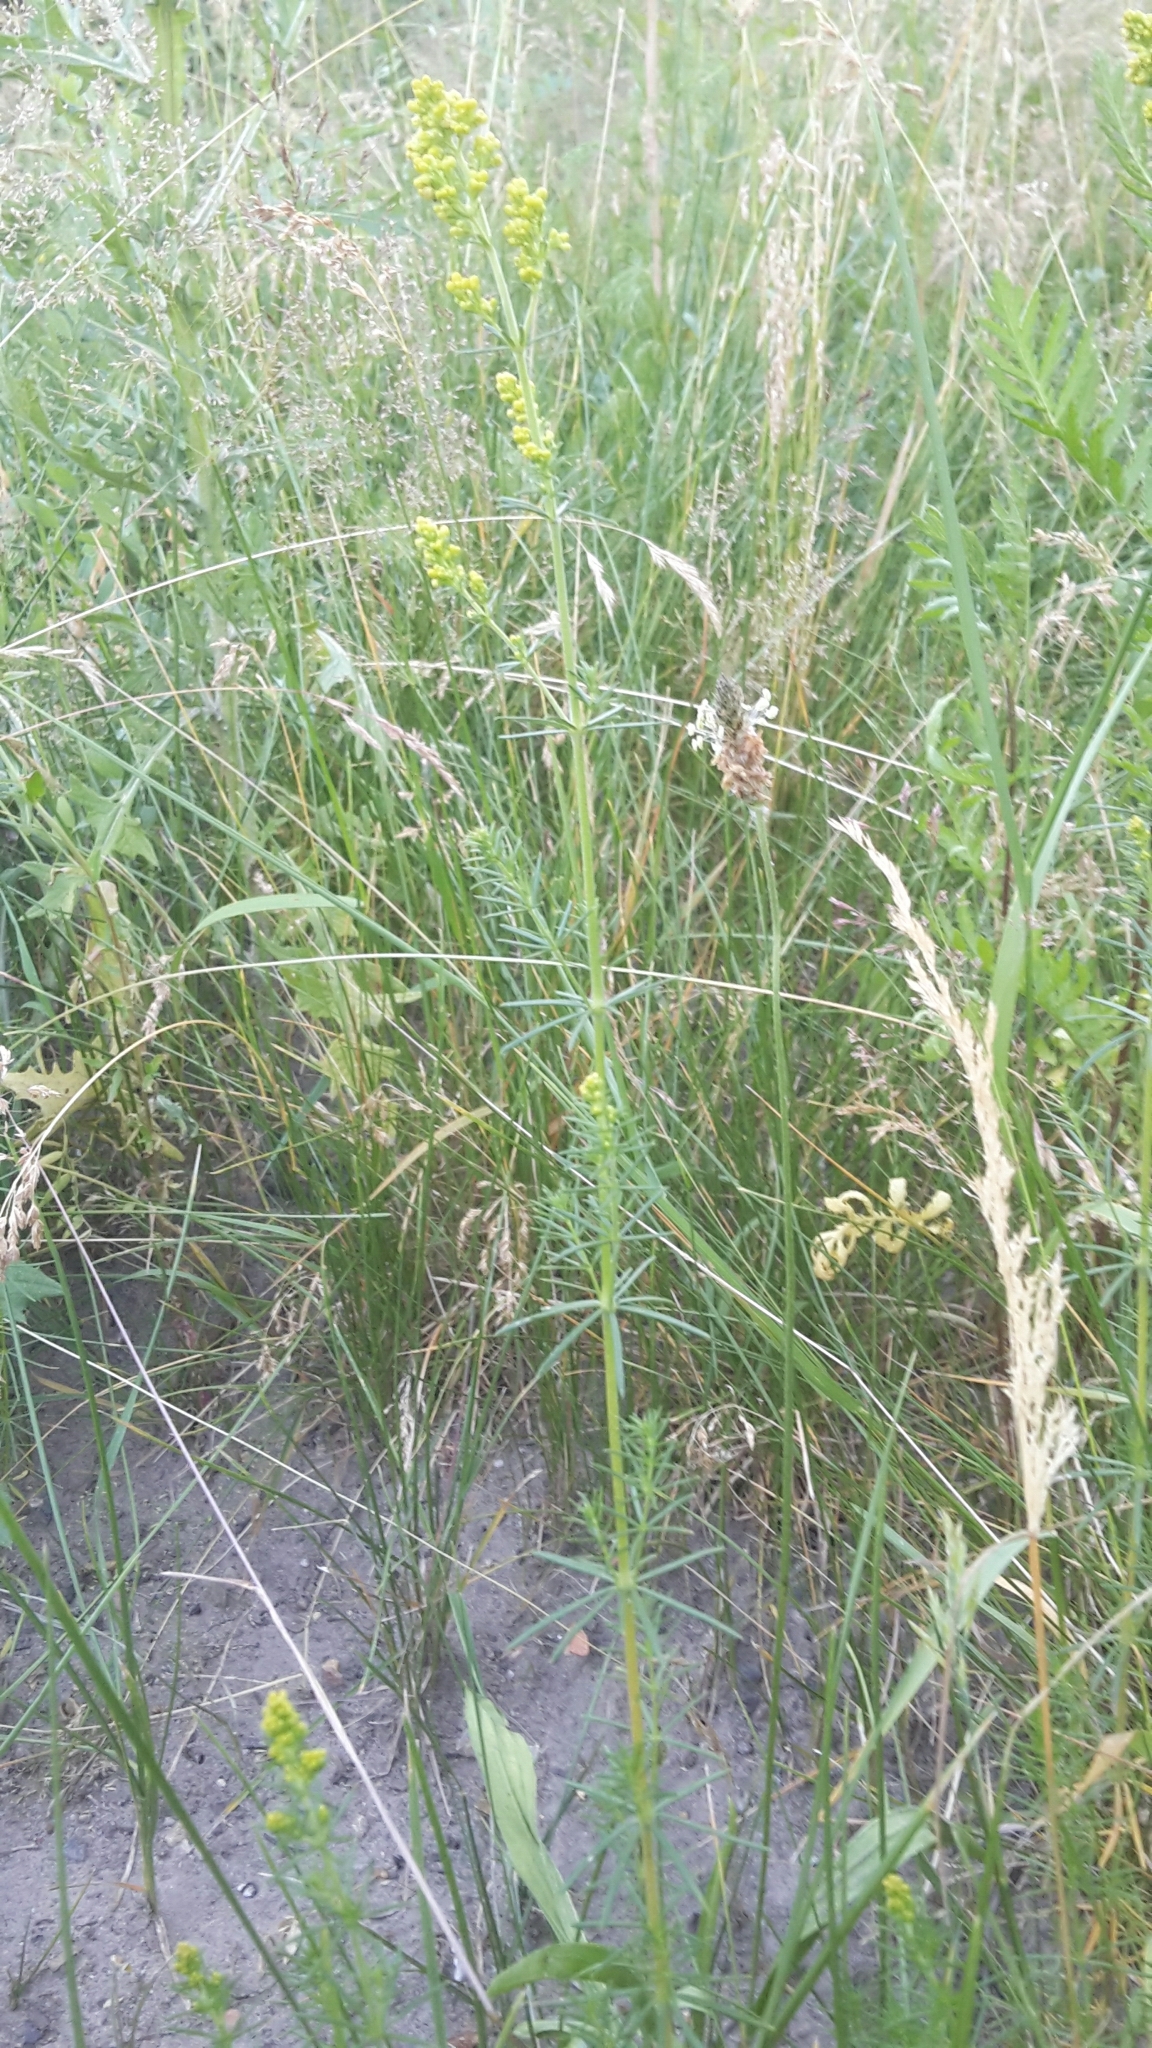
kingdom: Plantae
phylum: Tracheophyta
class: Magnoliopsida
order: Gentianales
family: Rubiaceae
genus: Galium
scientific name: Galium verum
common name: Lady's bedstraw
